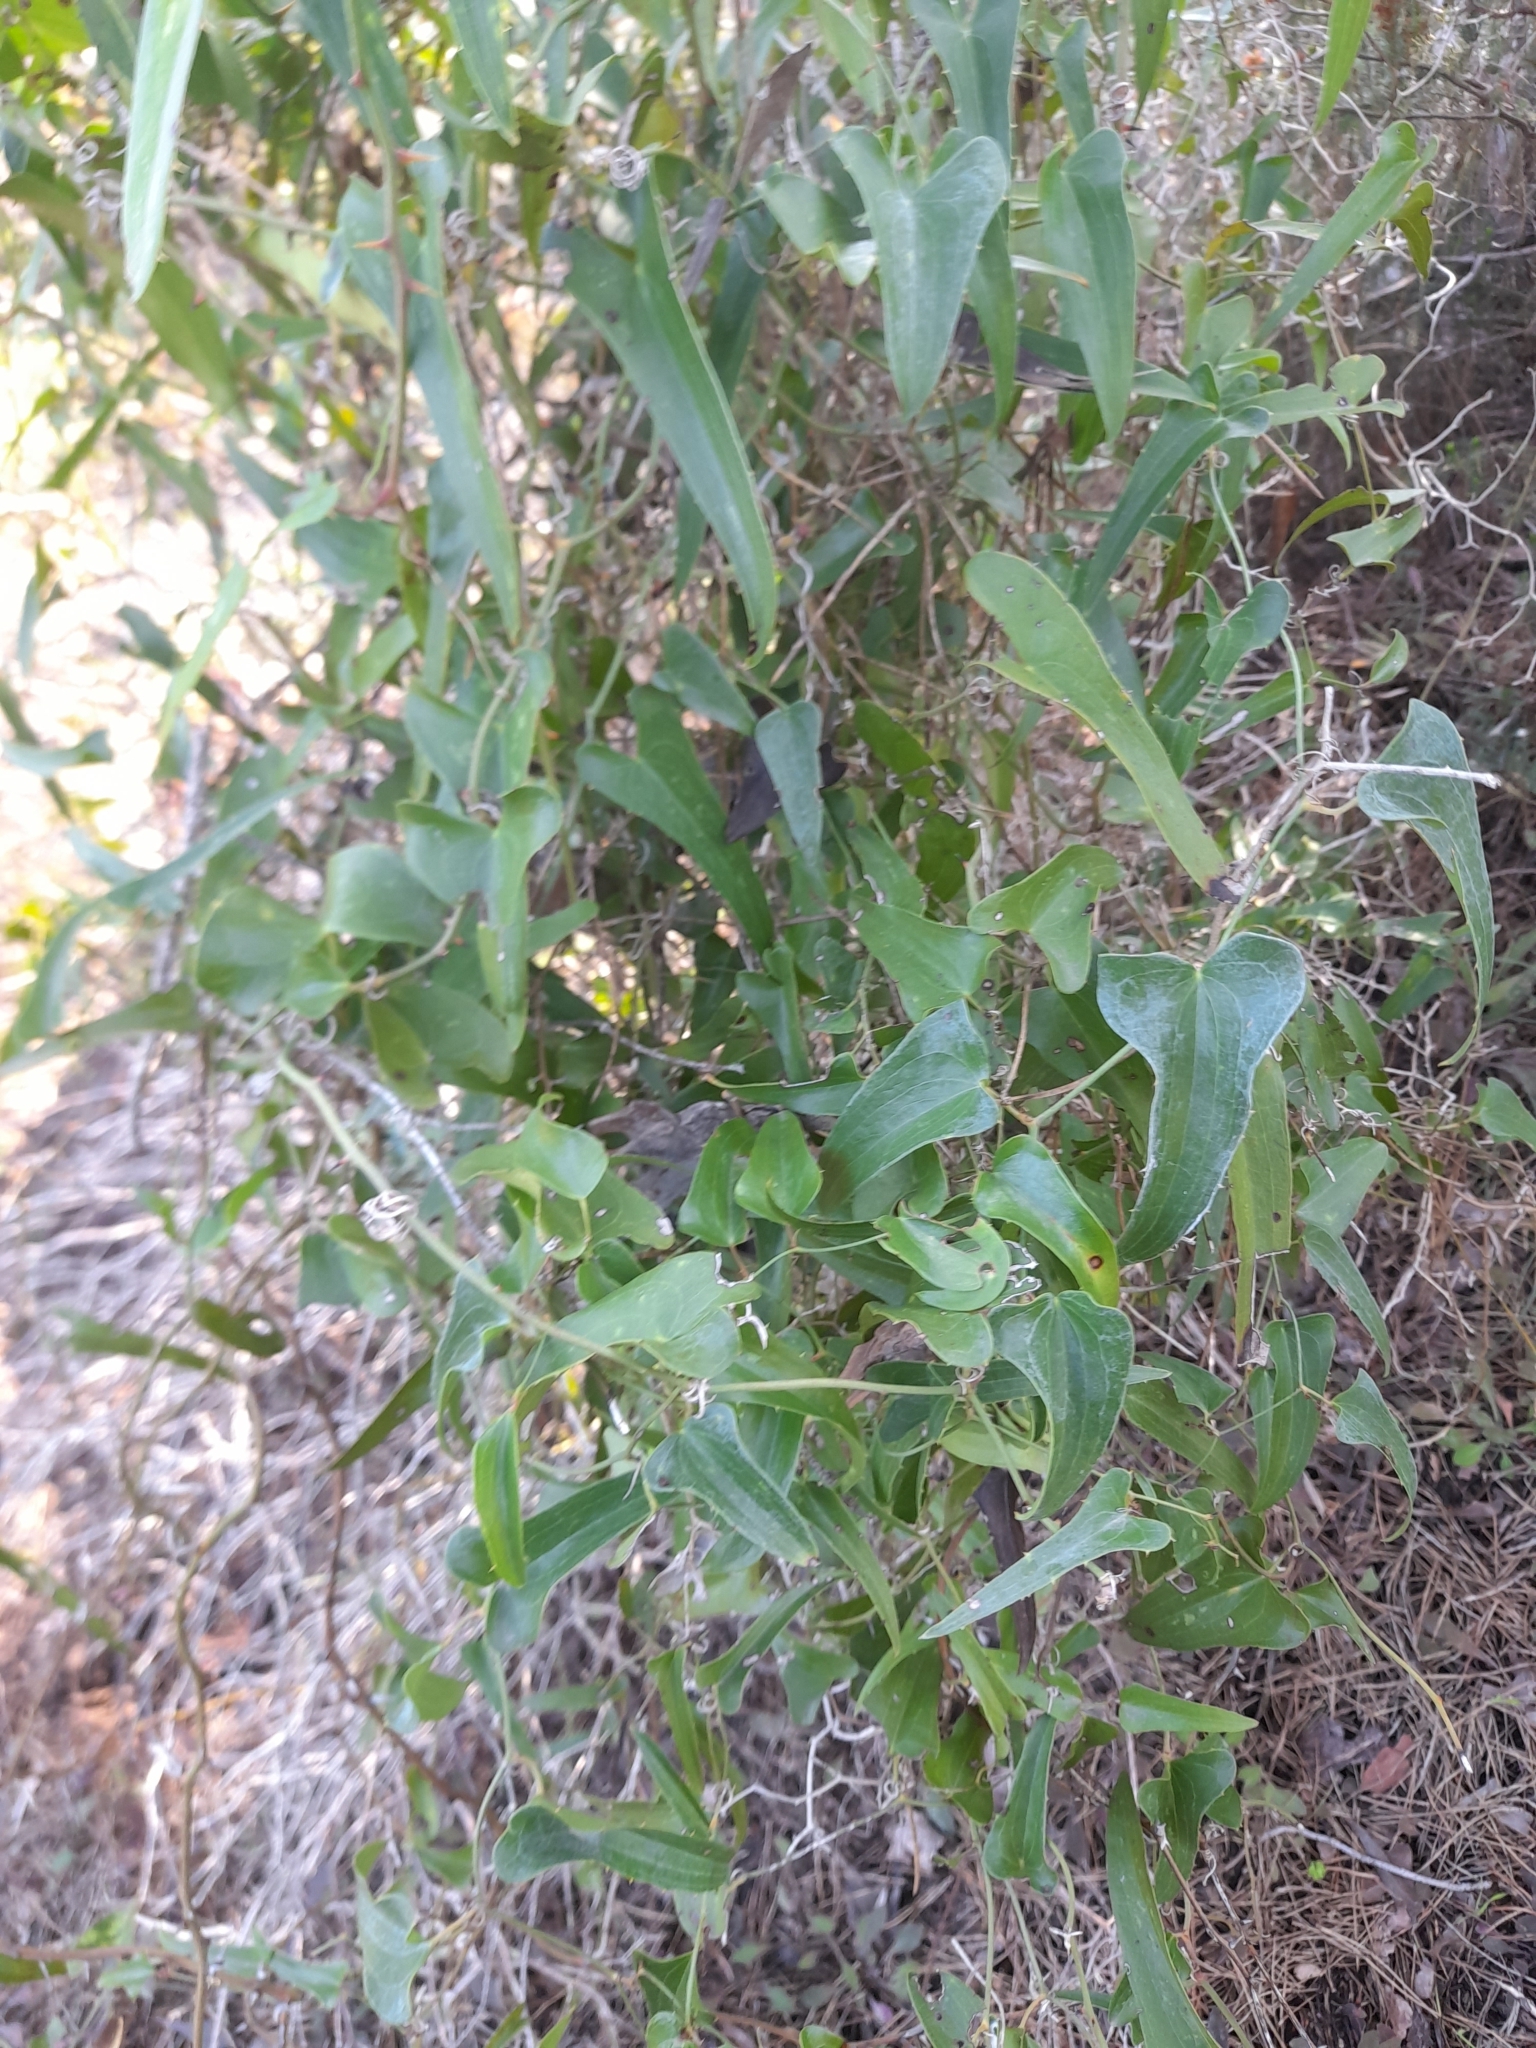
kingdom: Plantae
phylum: Tracheophyta
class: Liliopsida
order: Liliales
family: Smilacaceae
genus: Smilax
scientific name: Smilax aspera
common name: Common smilax
